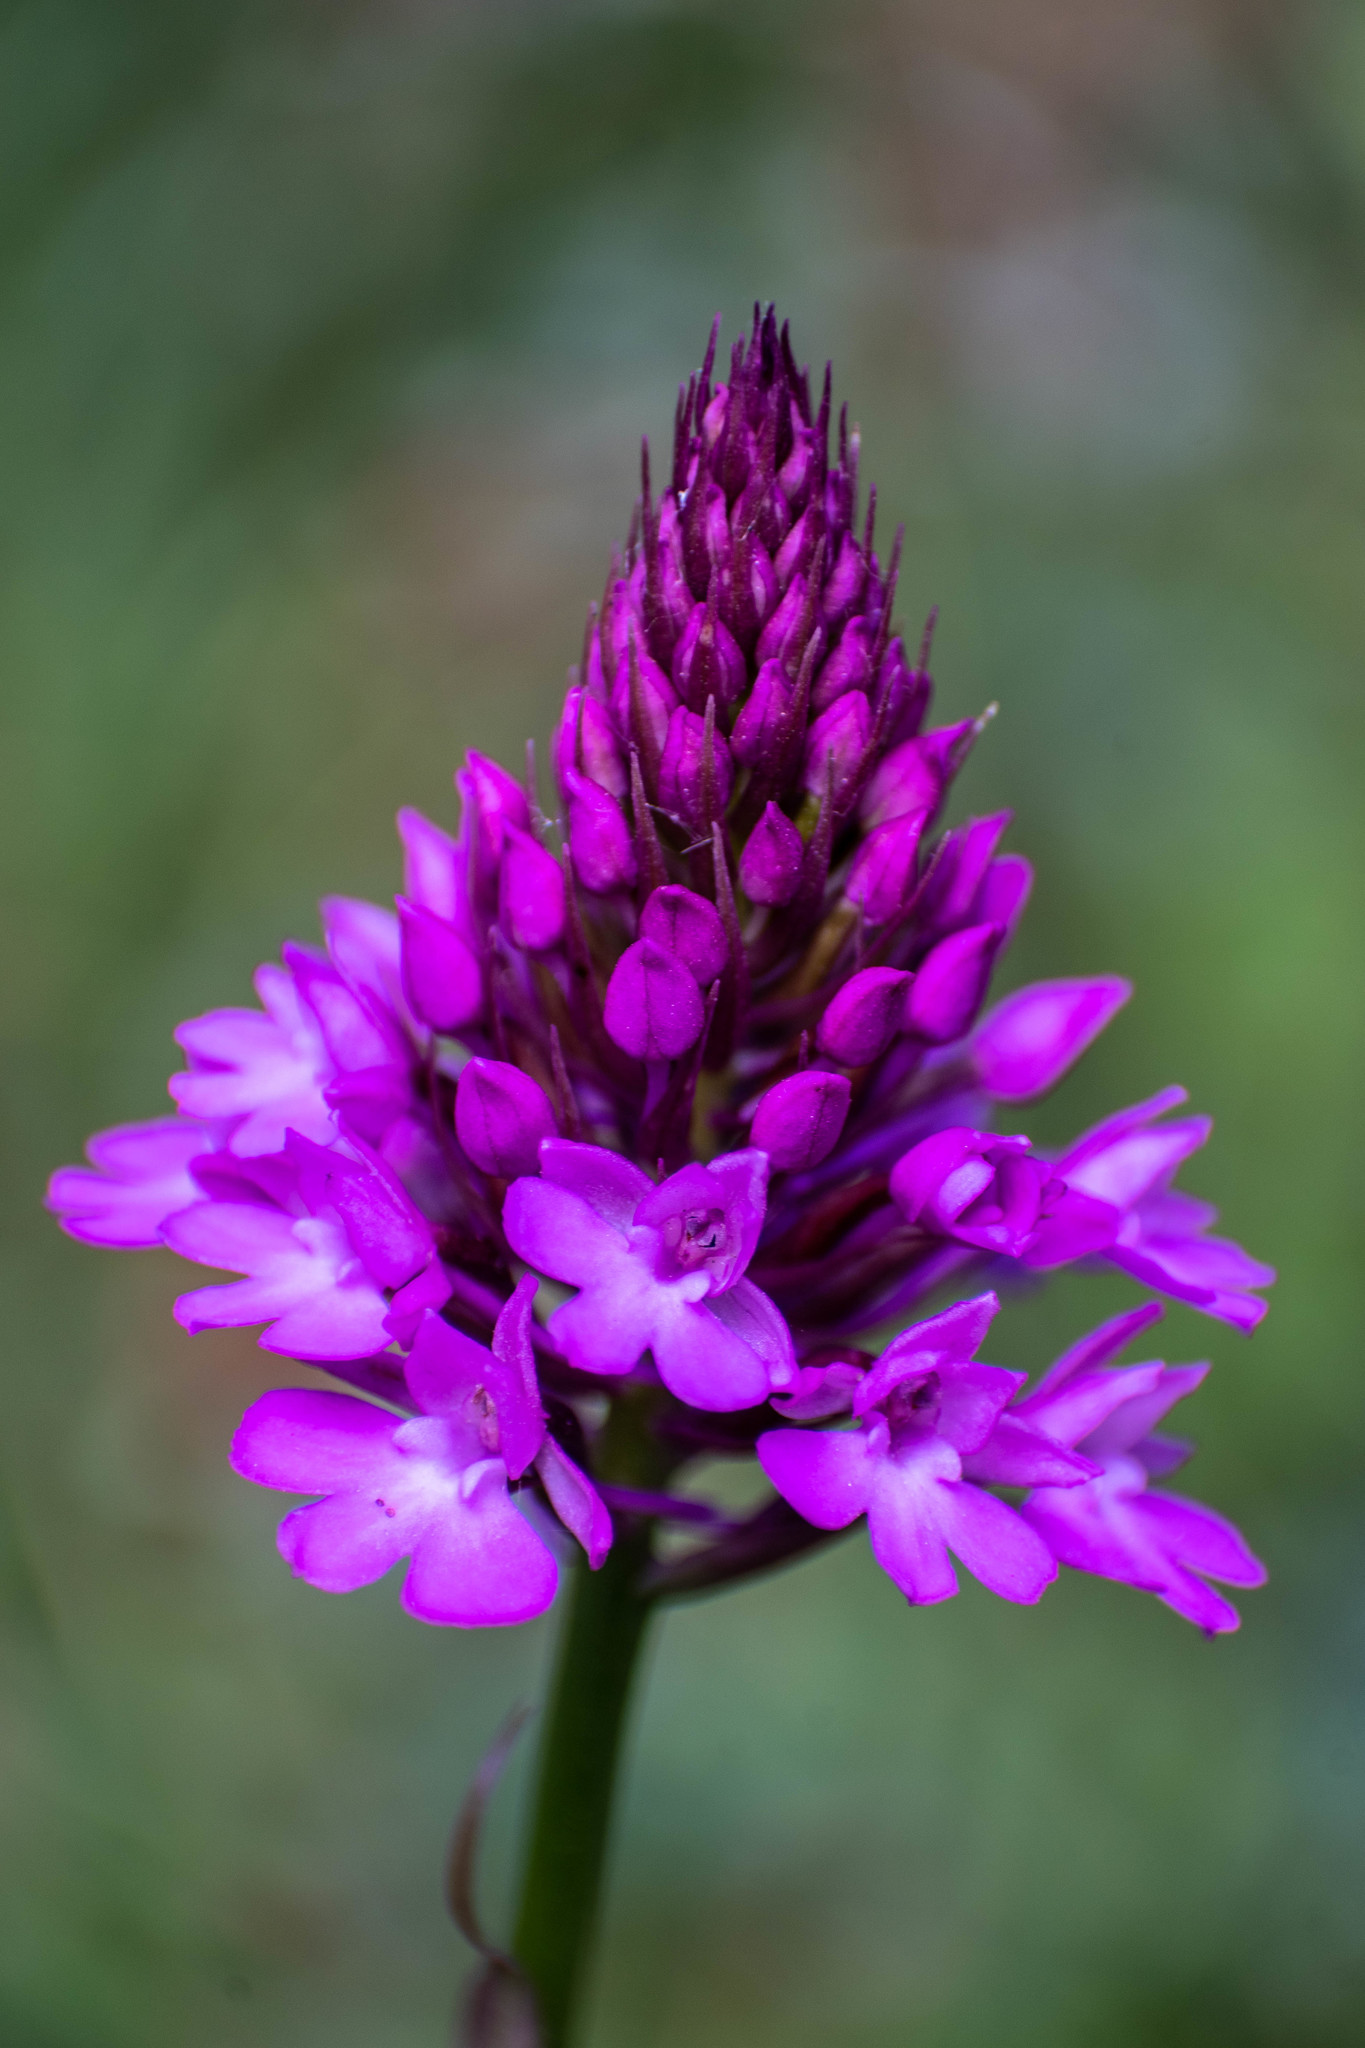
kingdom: Plantae
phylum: Tracheophyta
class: Liliopsida
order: Asparagales
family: Orchidaceae
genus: Anacamptis
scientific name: Anacamptis pyramidalis
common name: Pyramidal orchid
